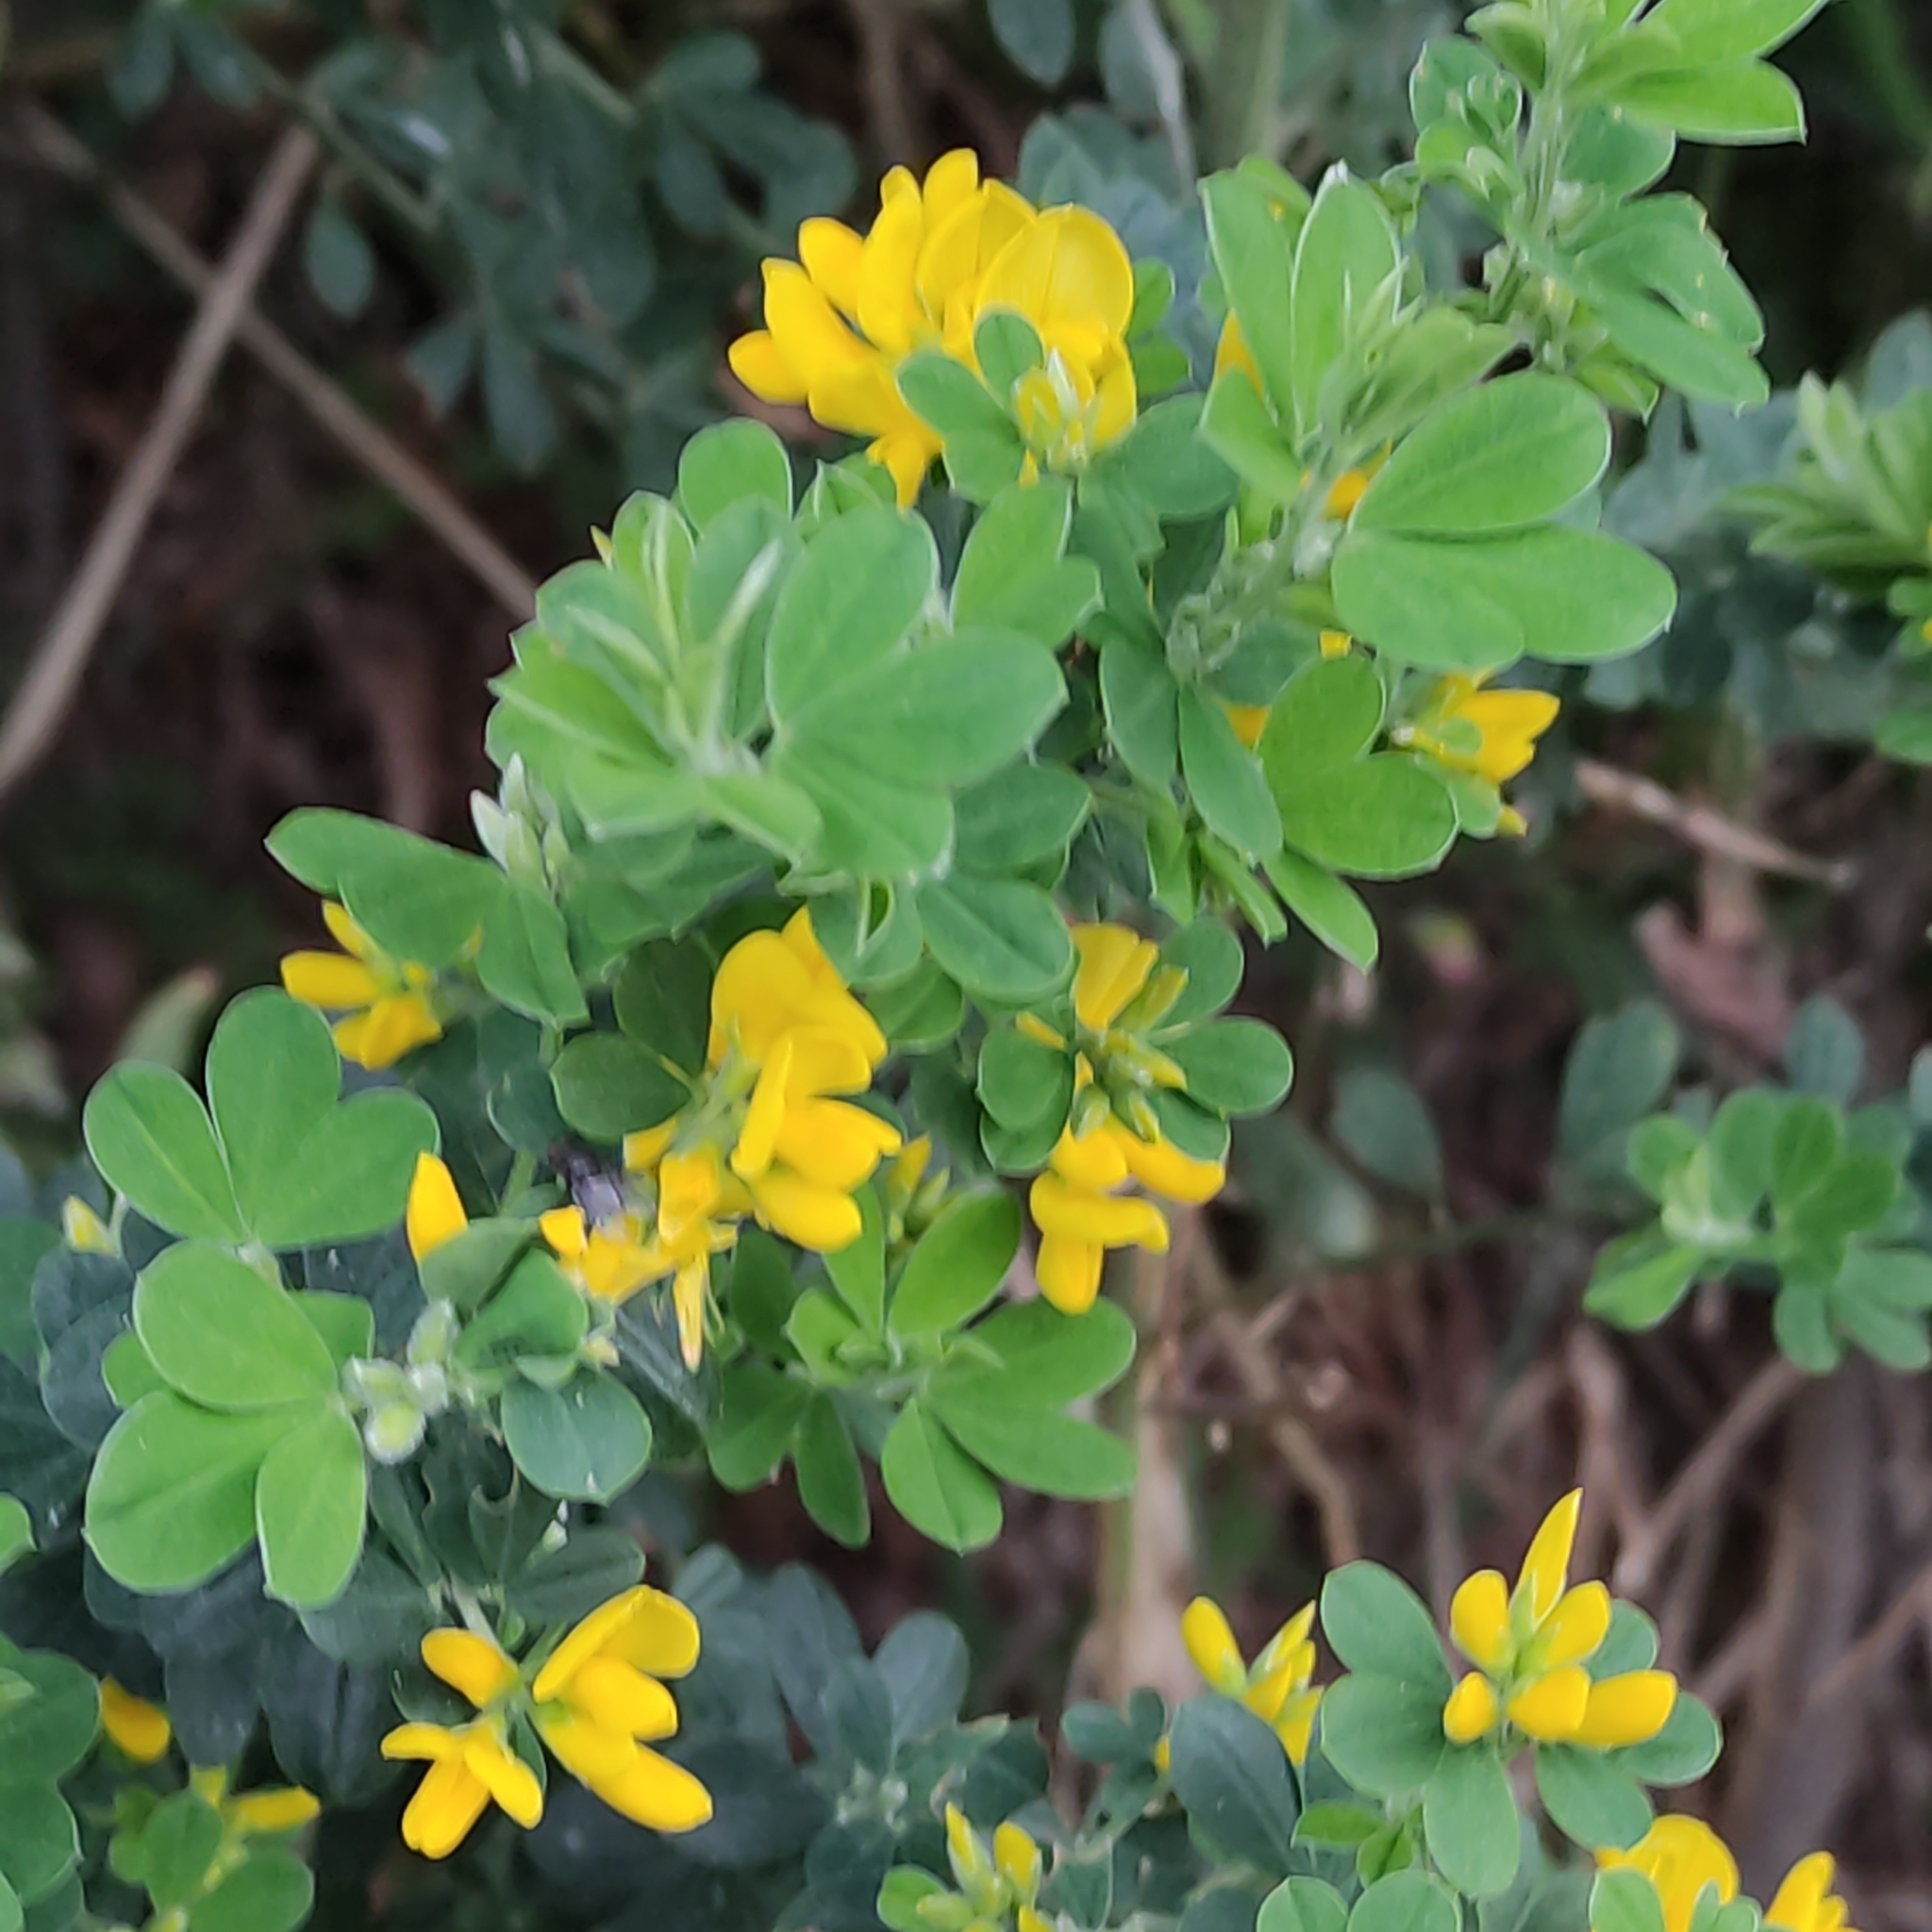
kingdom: Plantae
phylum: Tracheophyta
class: Magnoliopsida
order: Fabales
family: Fabaceae
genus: Genista
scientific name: Genista monspessulana
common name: Montpellier broom
